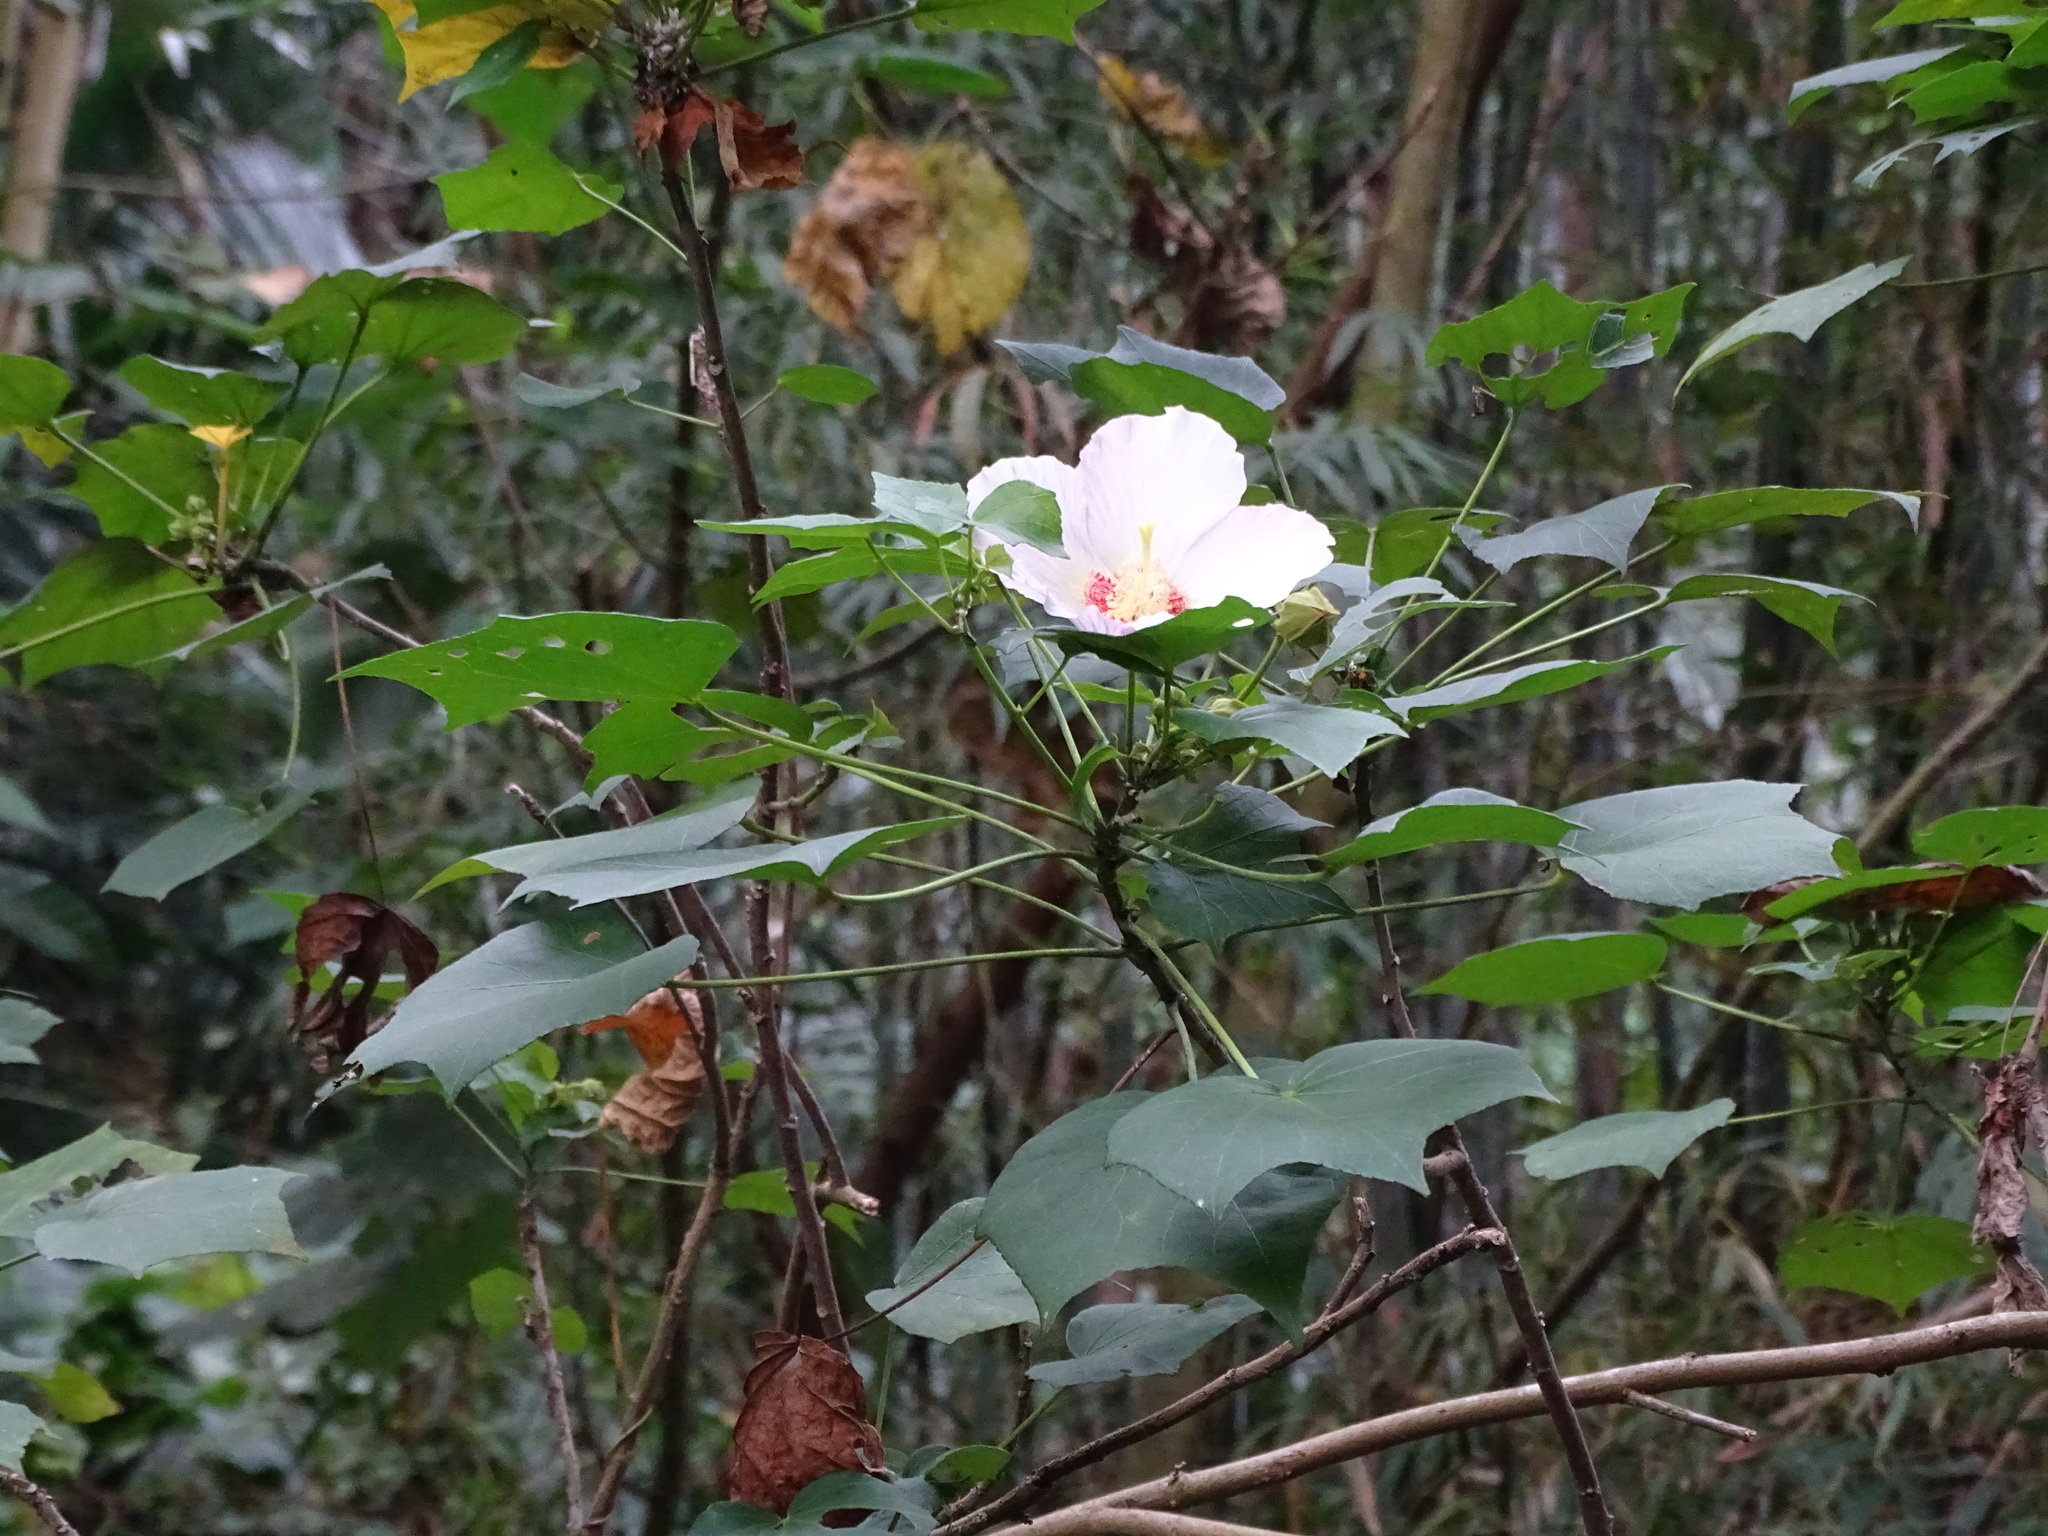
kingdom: Plantae
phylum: Tracheophyta
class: Magnoliopsida
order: Malvales
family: Malvaceae
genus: Hibiscus
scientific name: Hibiscus taiwanensis
